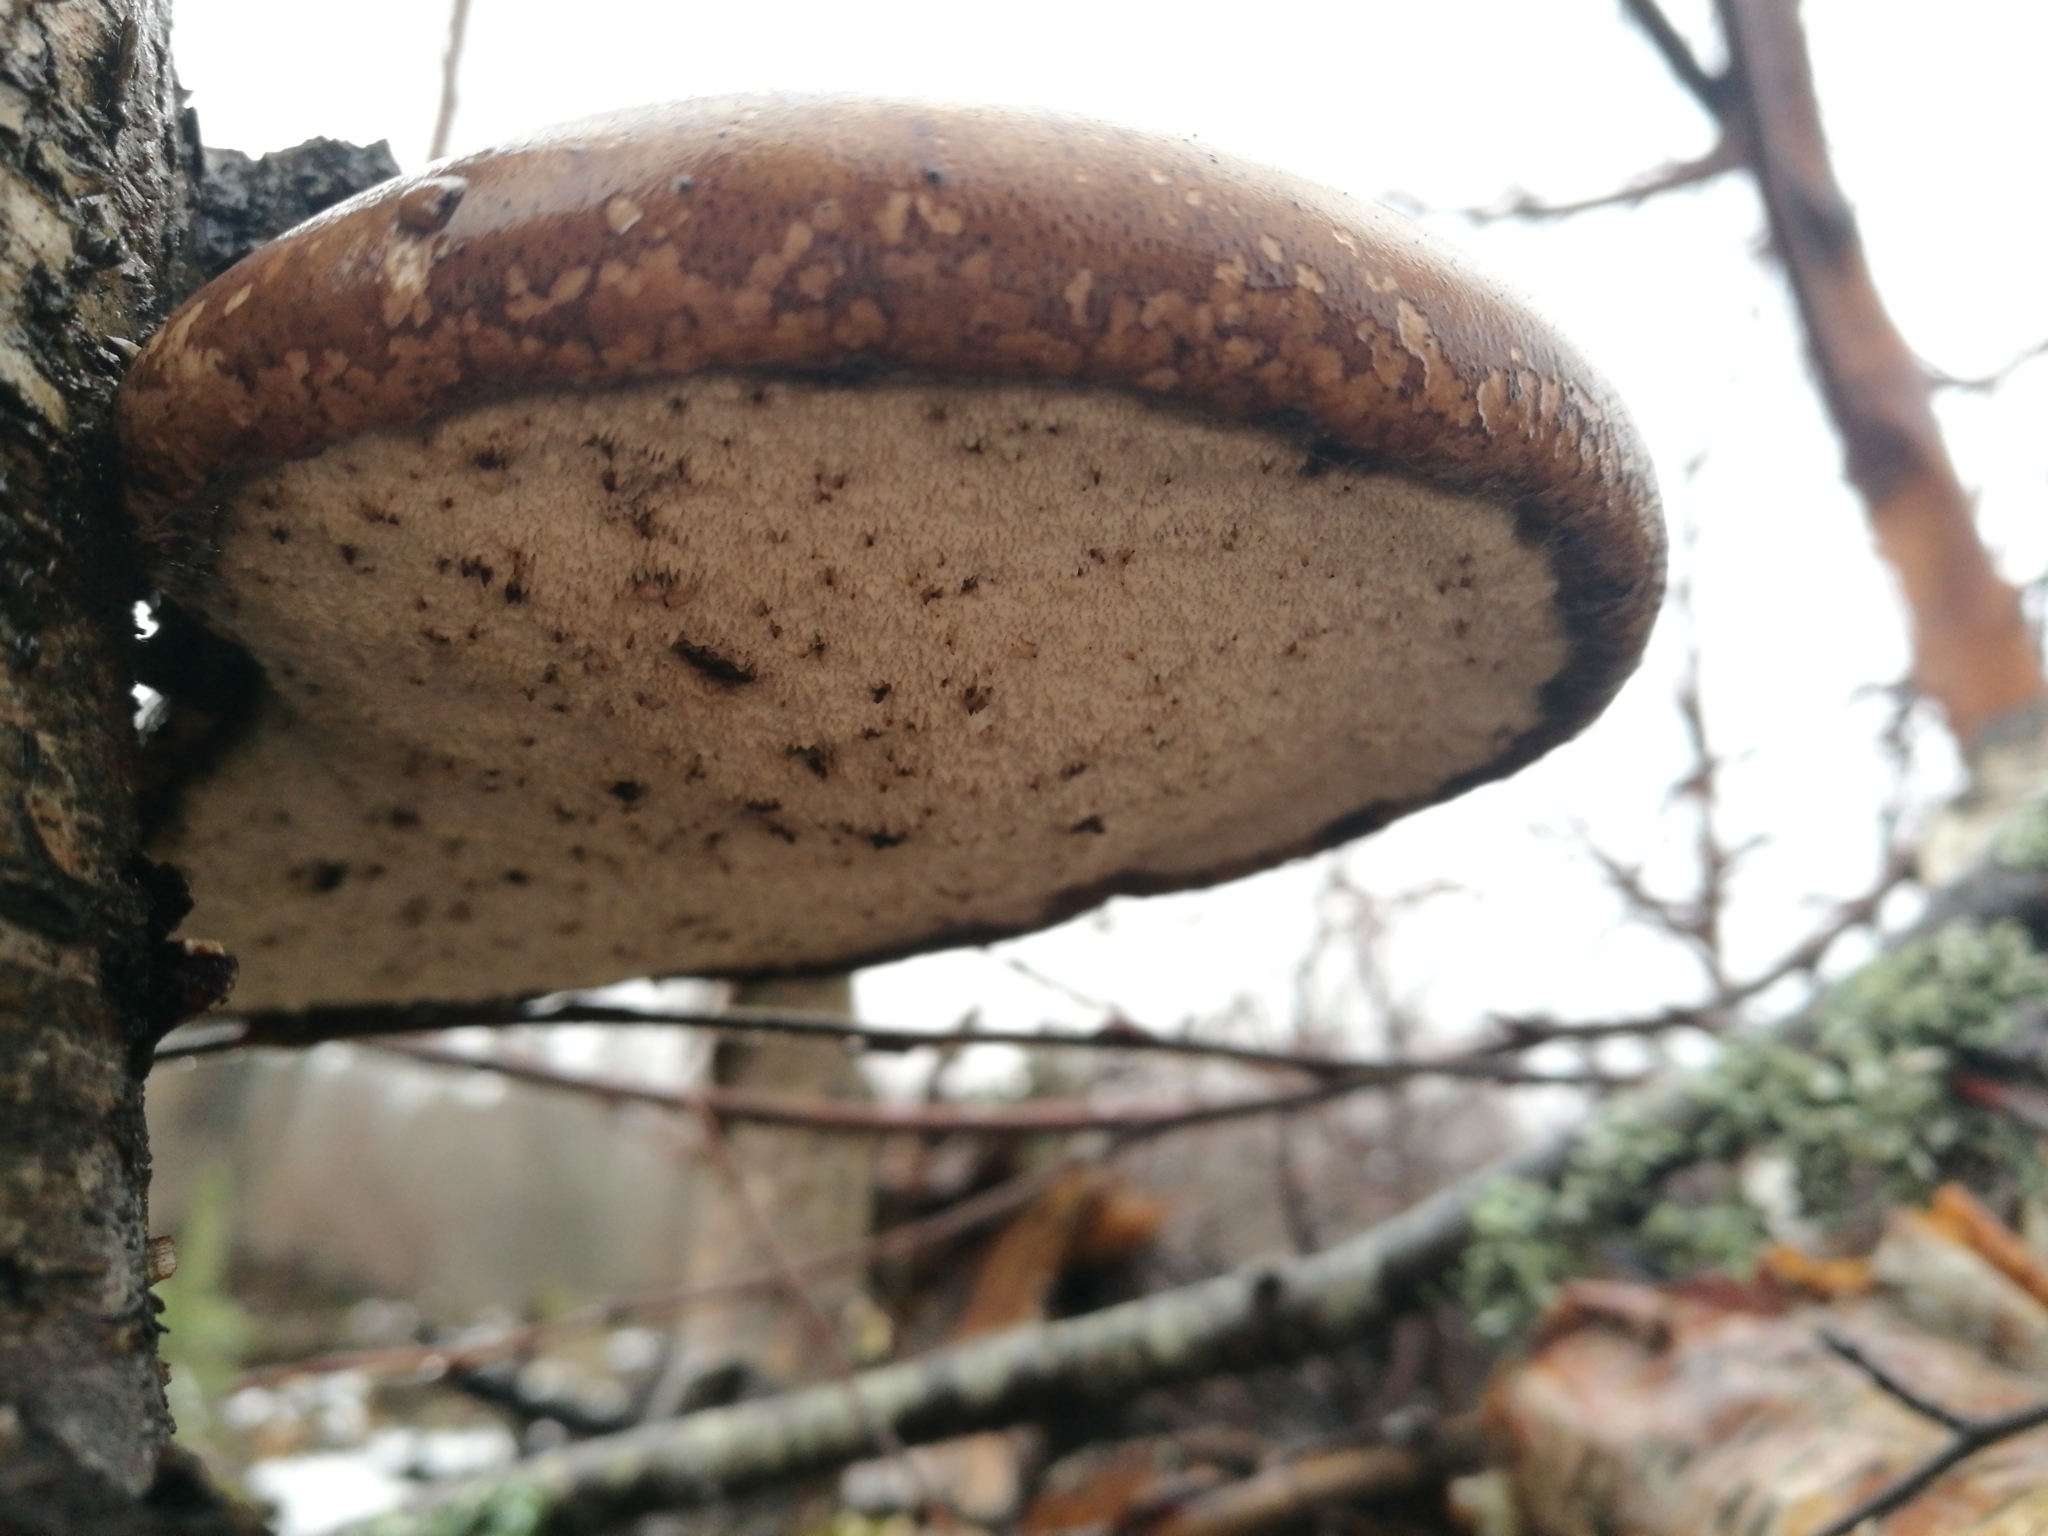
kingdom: Fungi
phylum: Basidiomycota
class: Agaricomycetes
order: Polyporales
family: Fomitopsidaceae
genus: Fomitopsis
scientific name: Fomitopsis betulina
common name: Birch polypore
